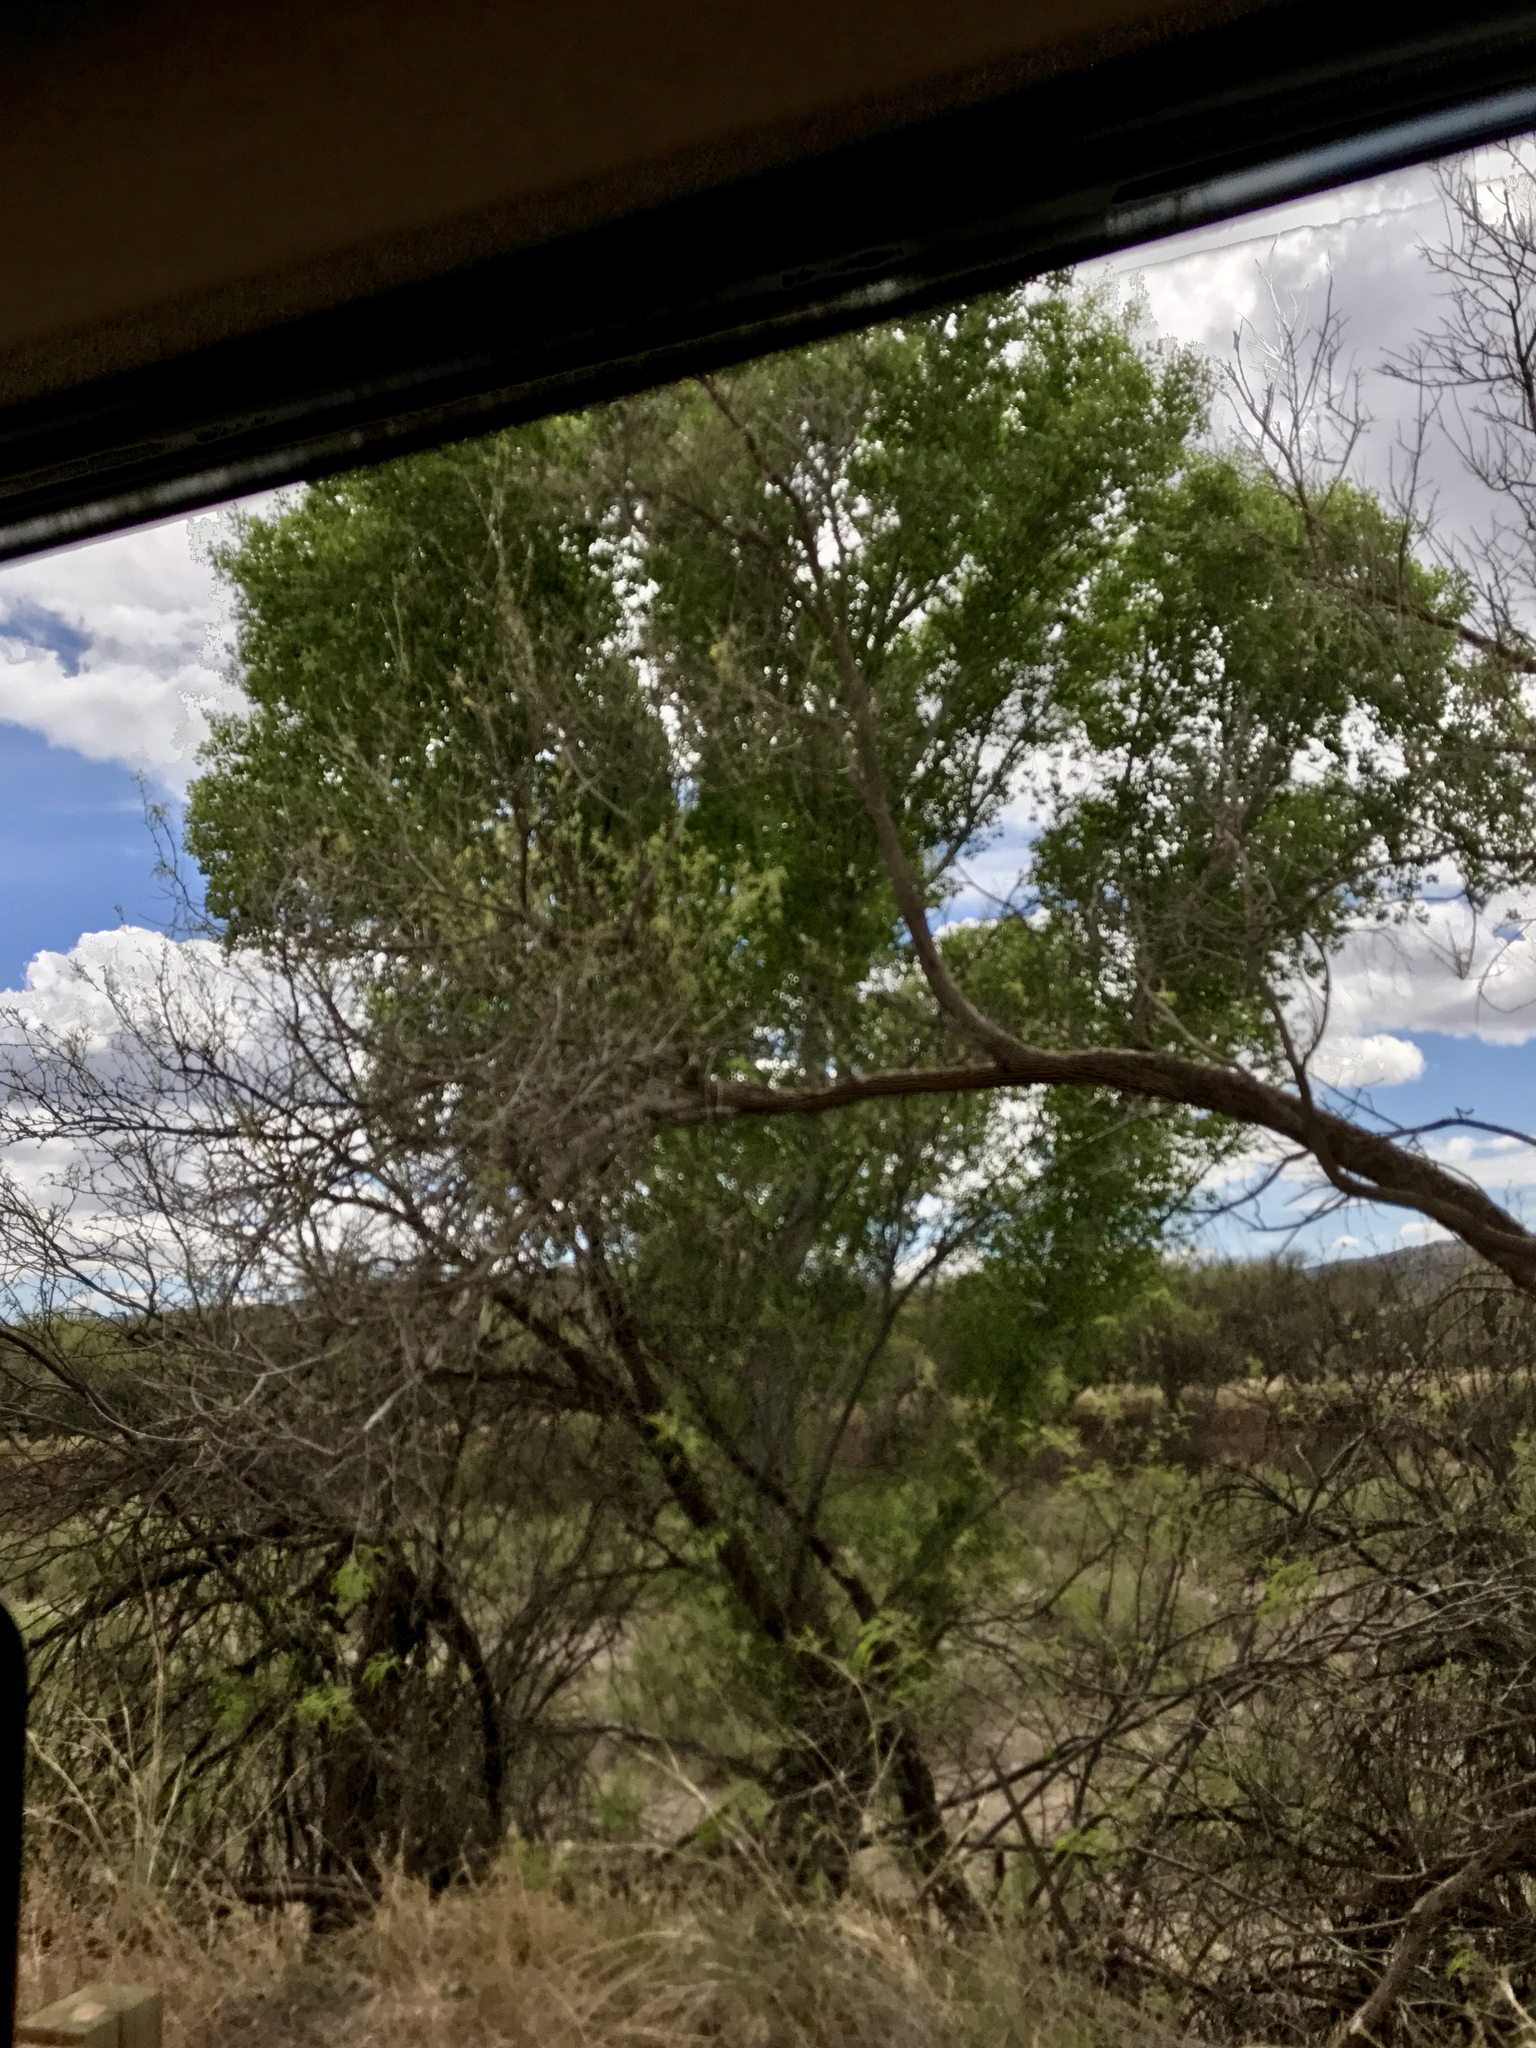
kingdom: Plantae
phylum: Tracheophyta
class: Magnoliopsida
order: Malpighiales
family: Salicaceae
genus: Populus
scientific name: Populus fremontii
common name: Fremont's cottonwood
